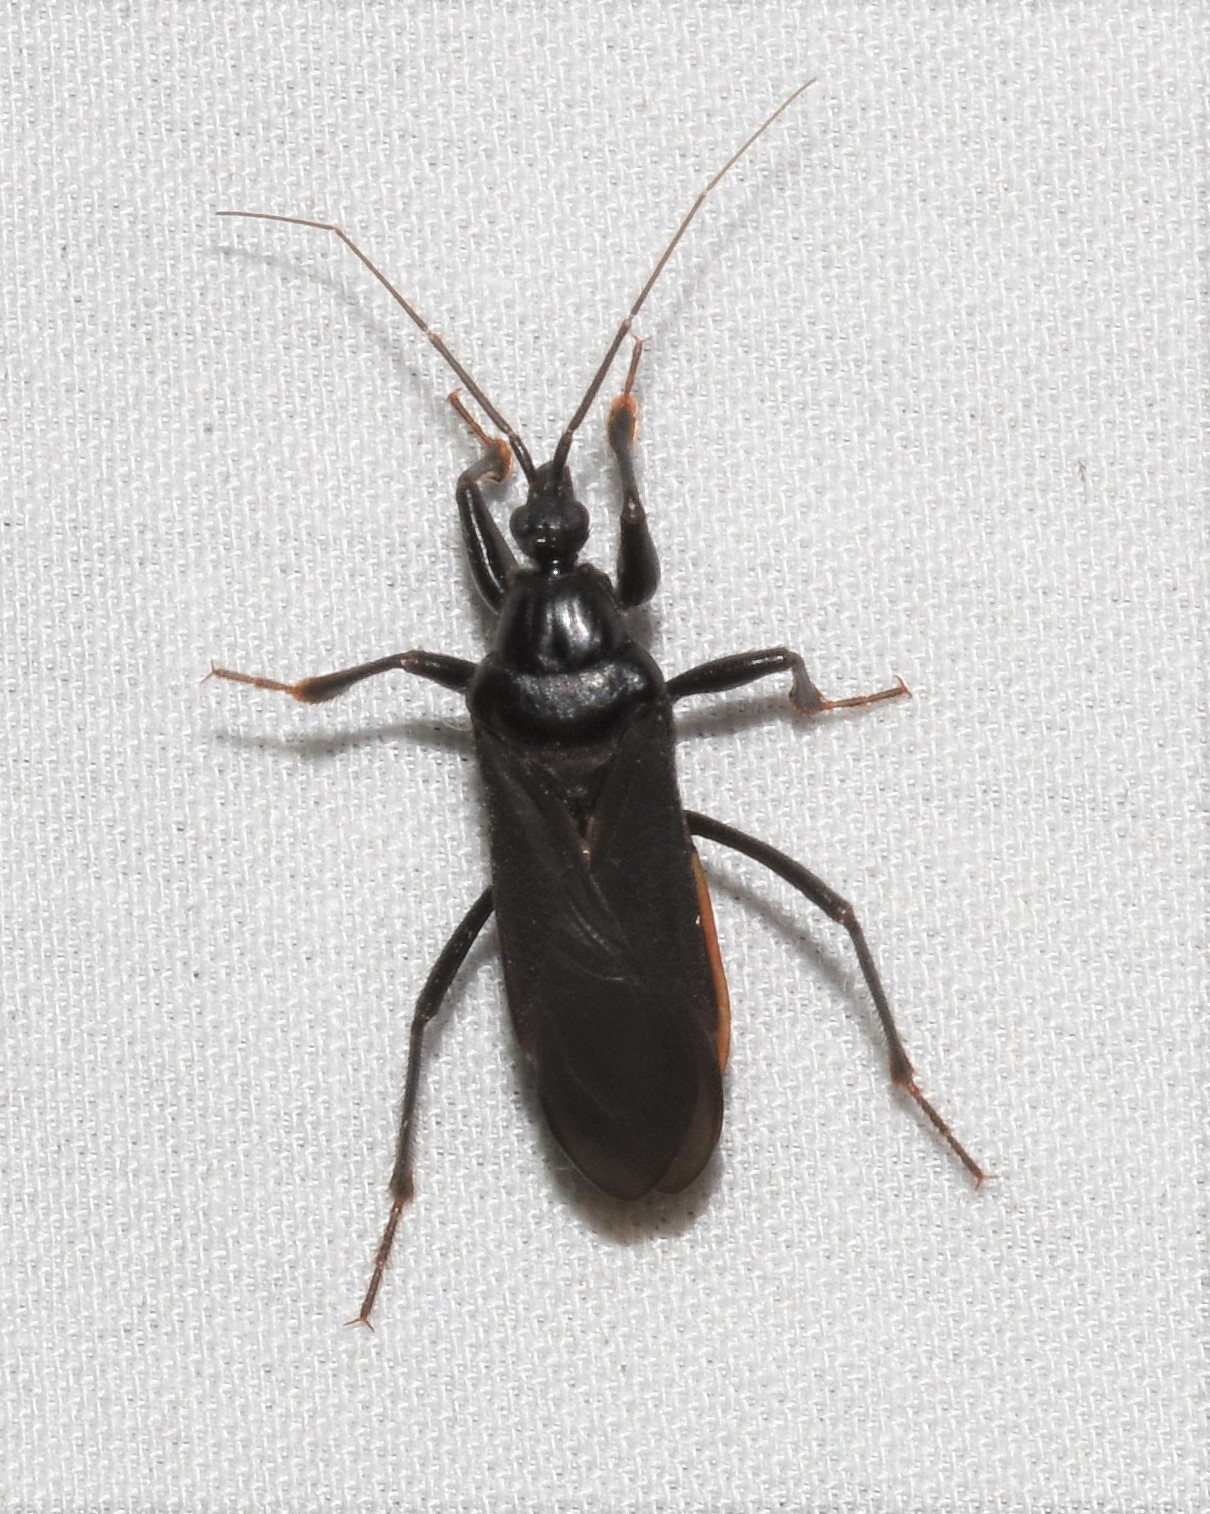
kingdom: Animalia
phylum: Arthropoda
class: Insecta
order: Hemiptera
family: Reduviidae
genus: Melanolestes
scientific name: Melanolestes picipes
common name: Assassin bug
